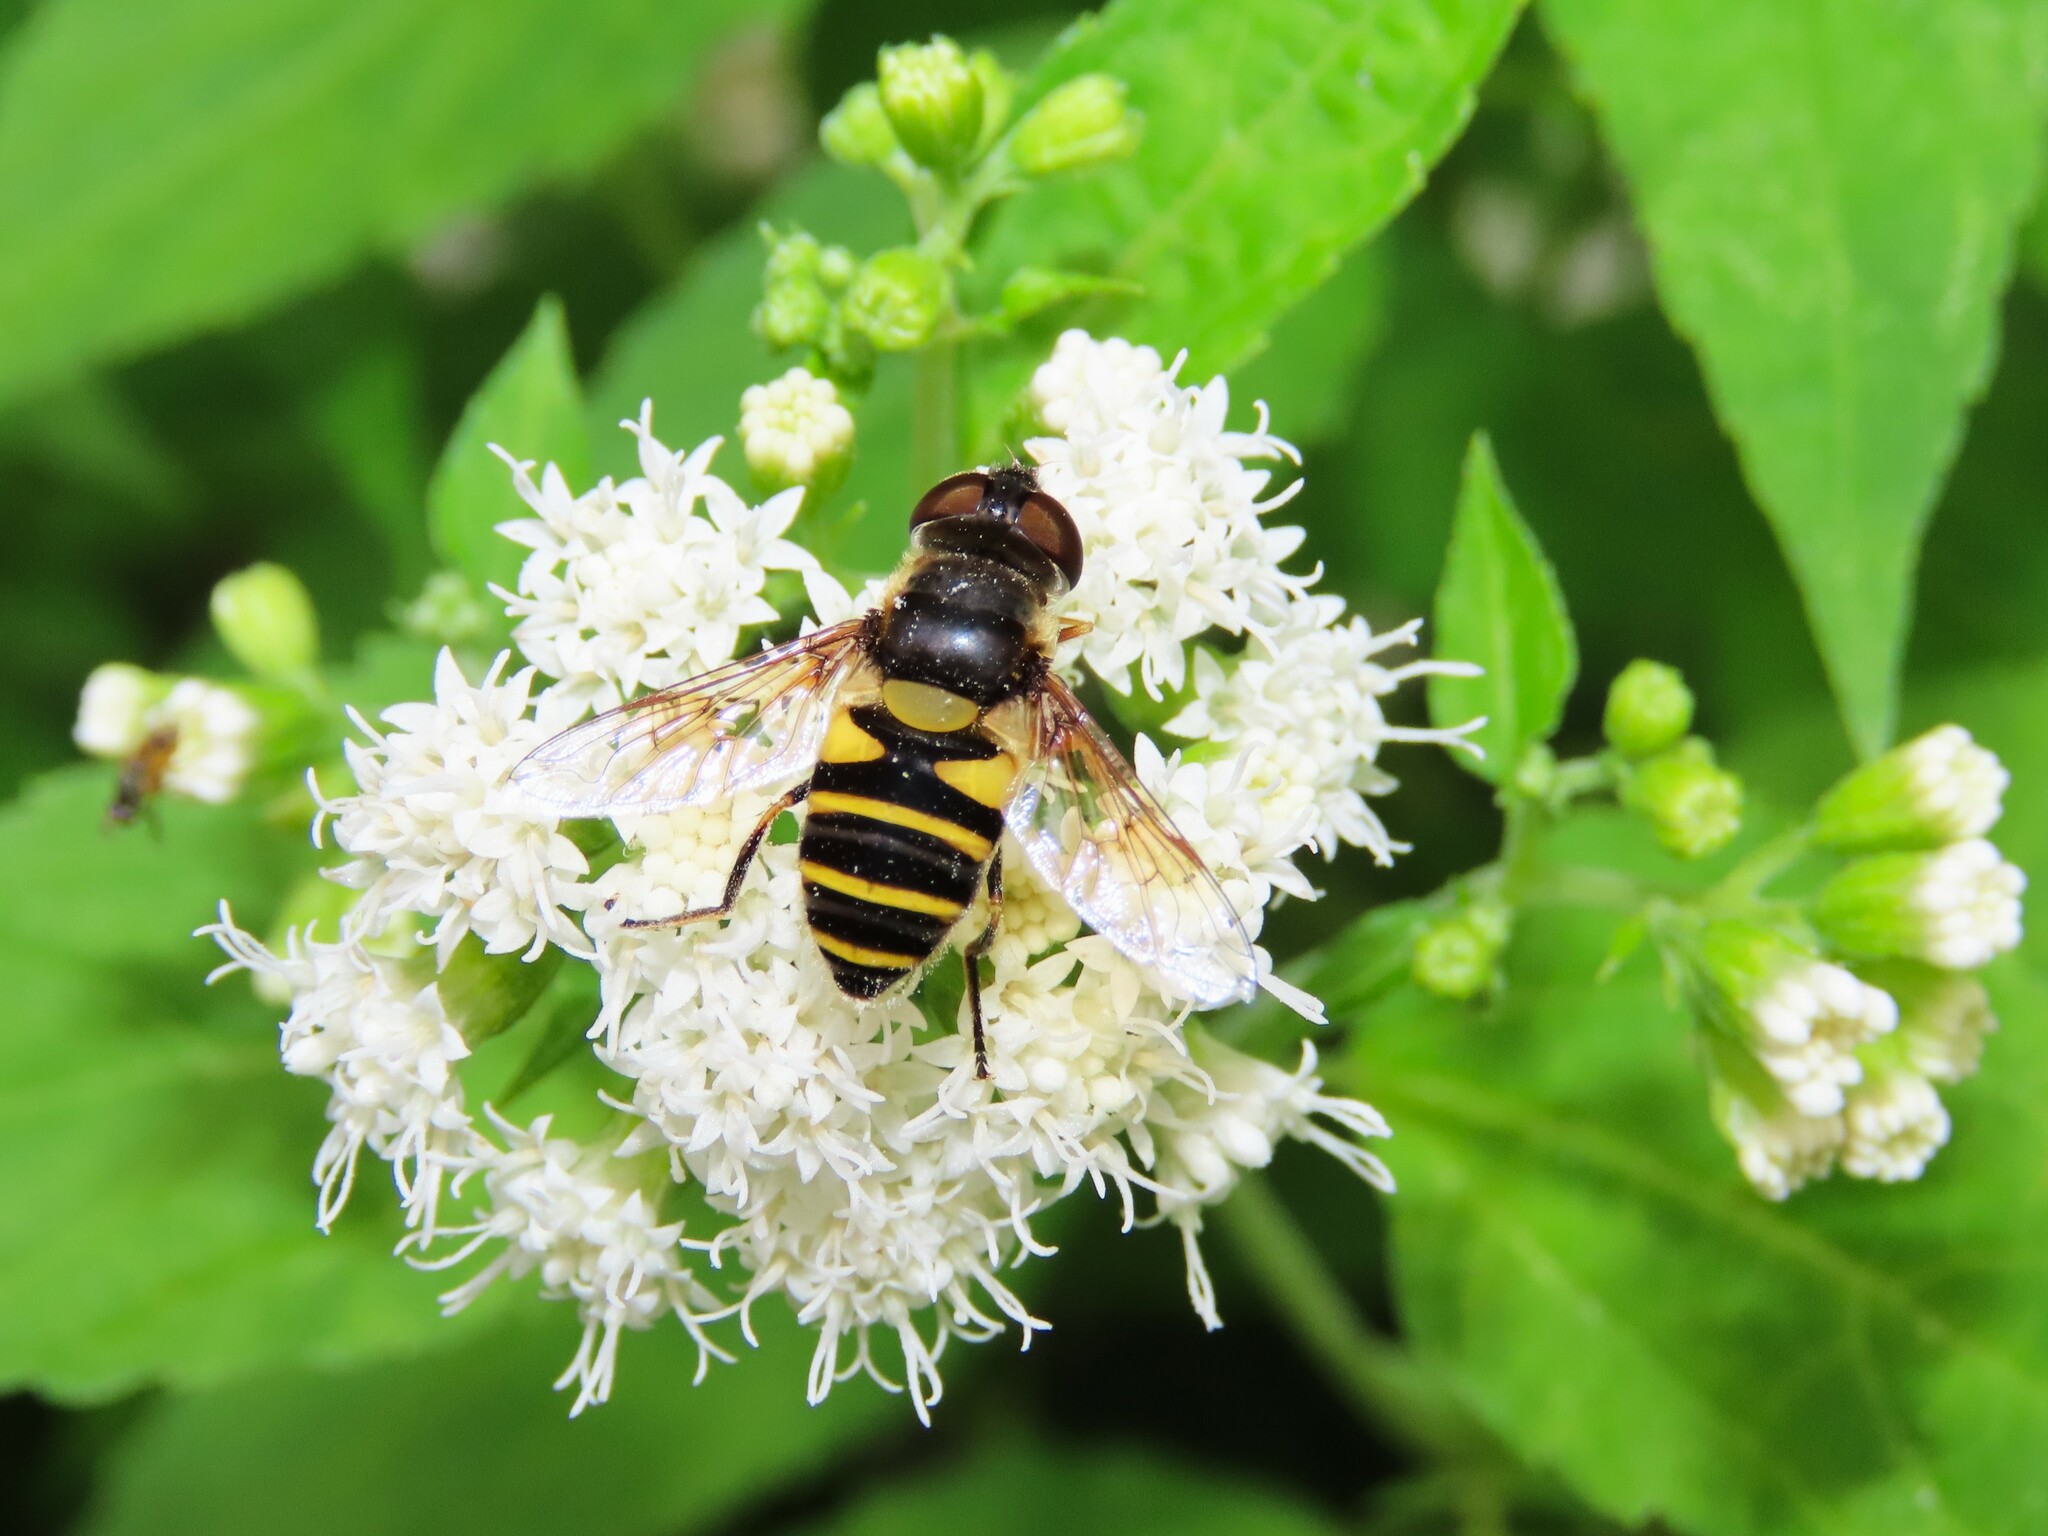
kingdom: Animalia
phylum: Arthropoda
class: Insecta
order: Diptera
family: Syrphidae
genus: Eristalis
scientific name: Eristalis transversa
